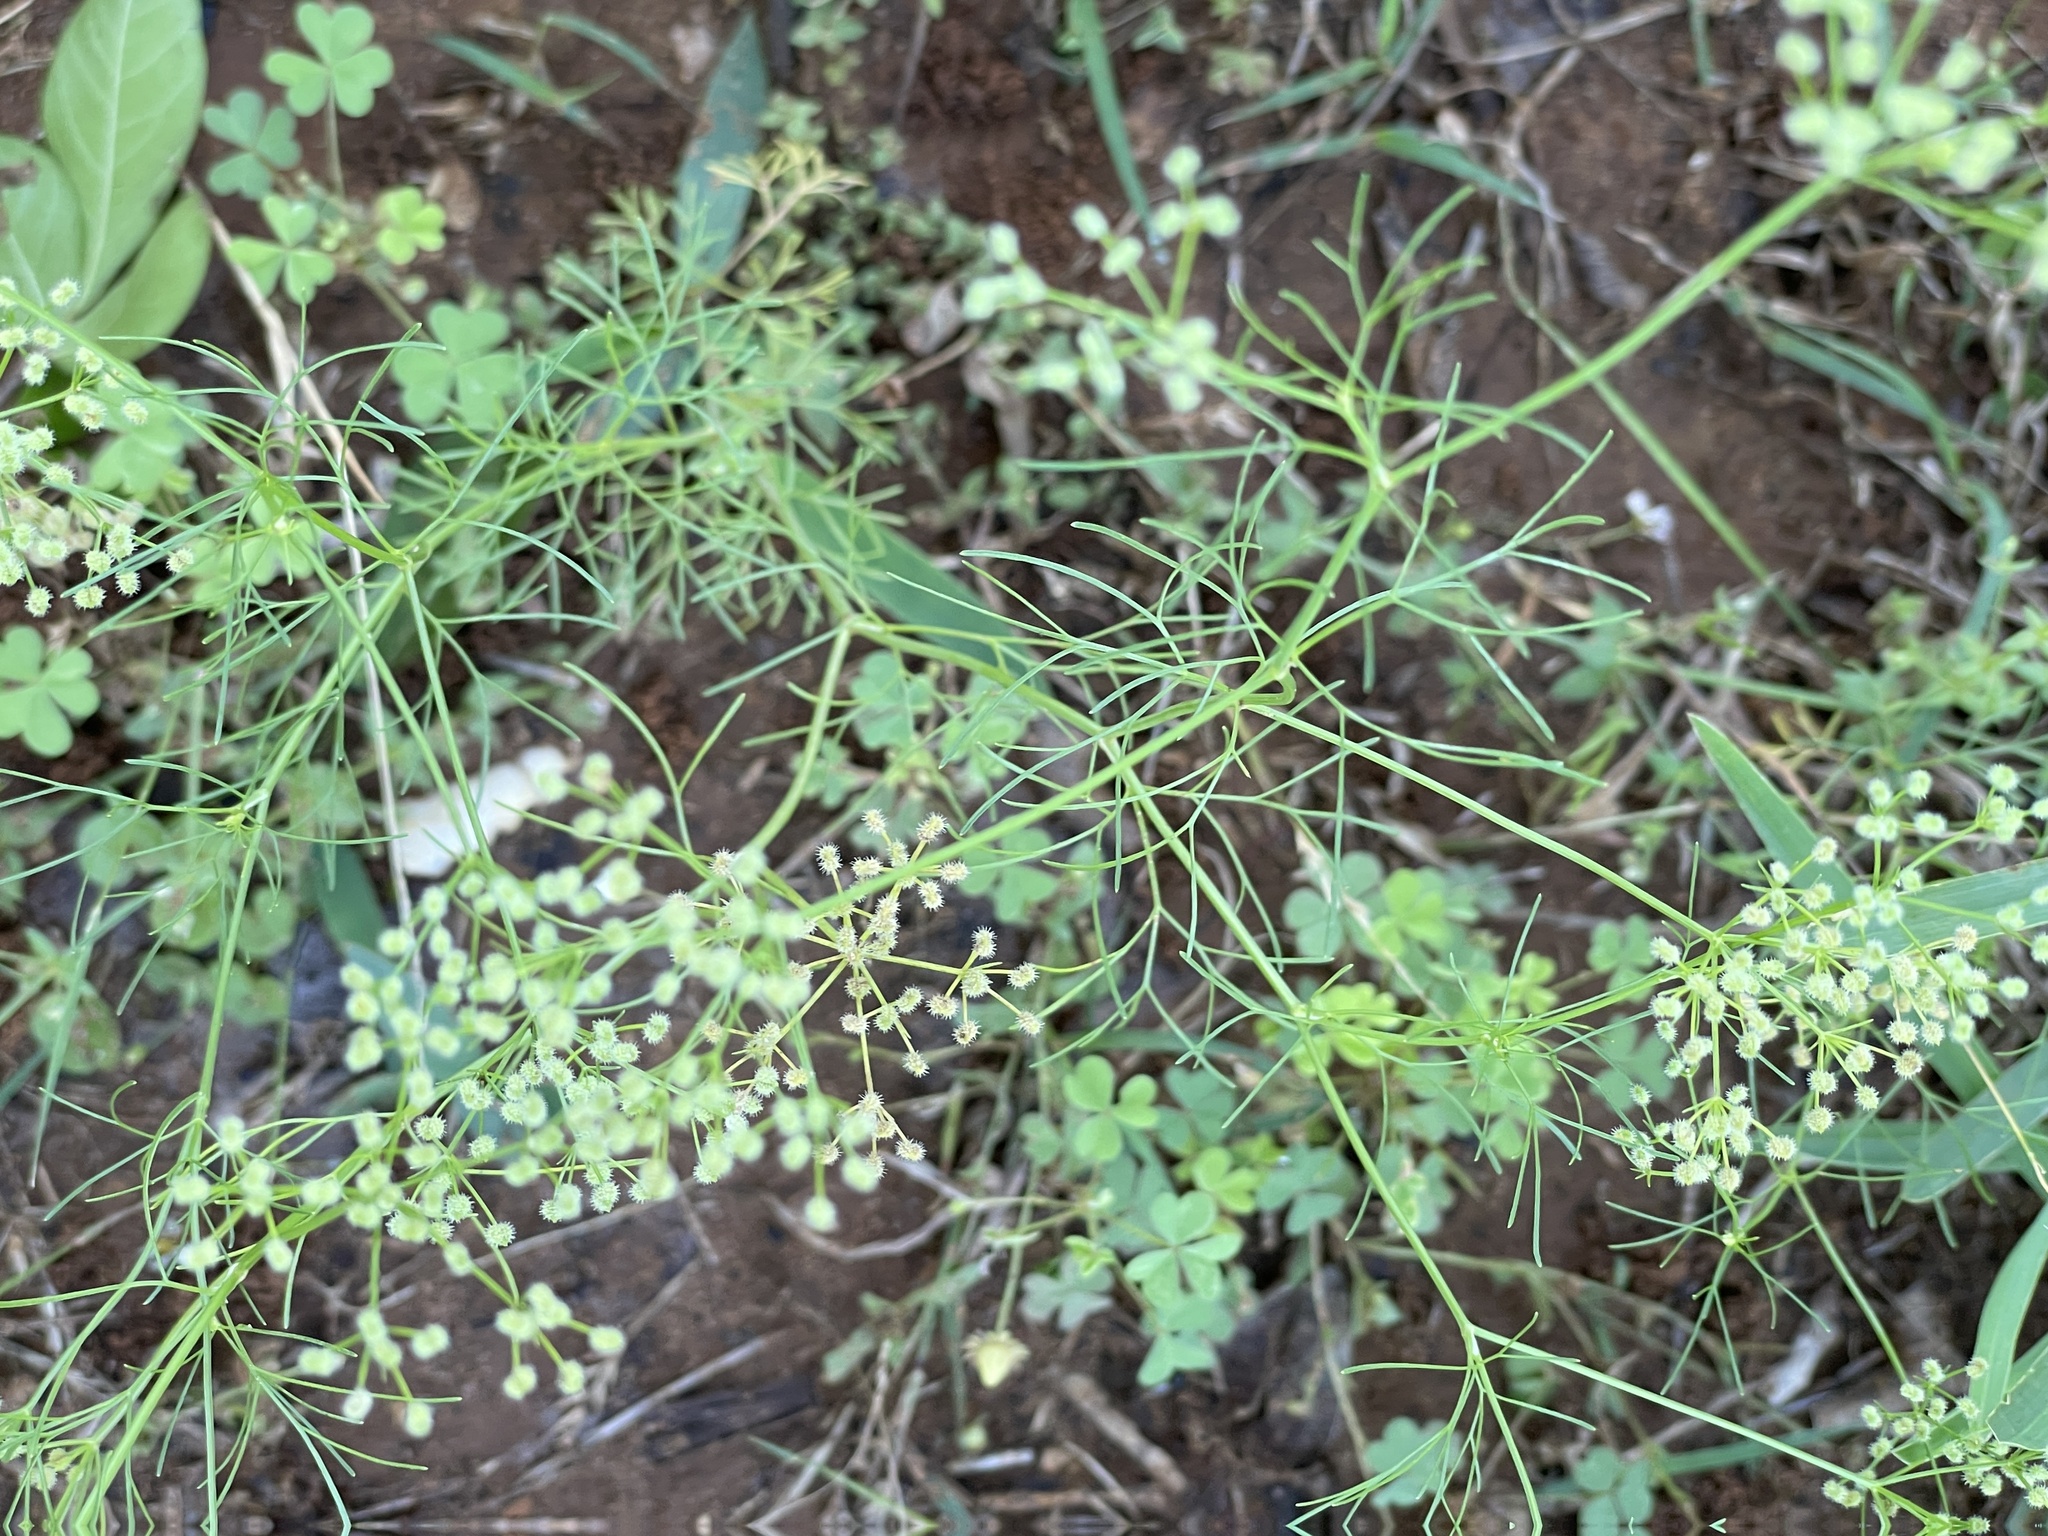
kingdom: Plantae
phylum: Tracheophyta
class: Magnoliopsida
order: Apiales
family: Apiaceae
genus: Cyclospermum
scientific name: Cyclospermum leptophyllum
